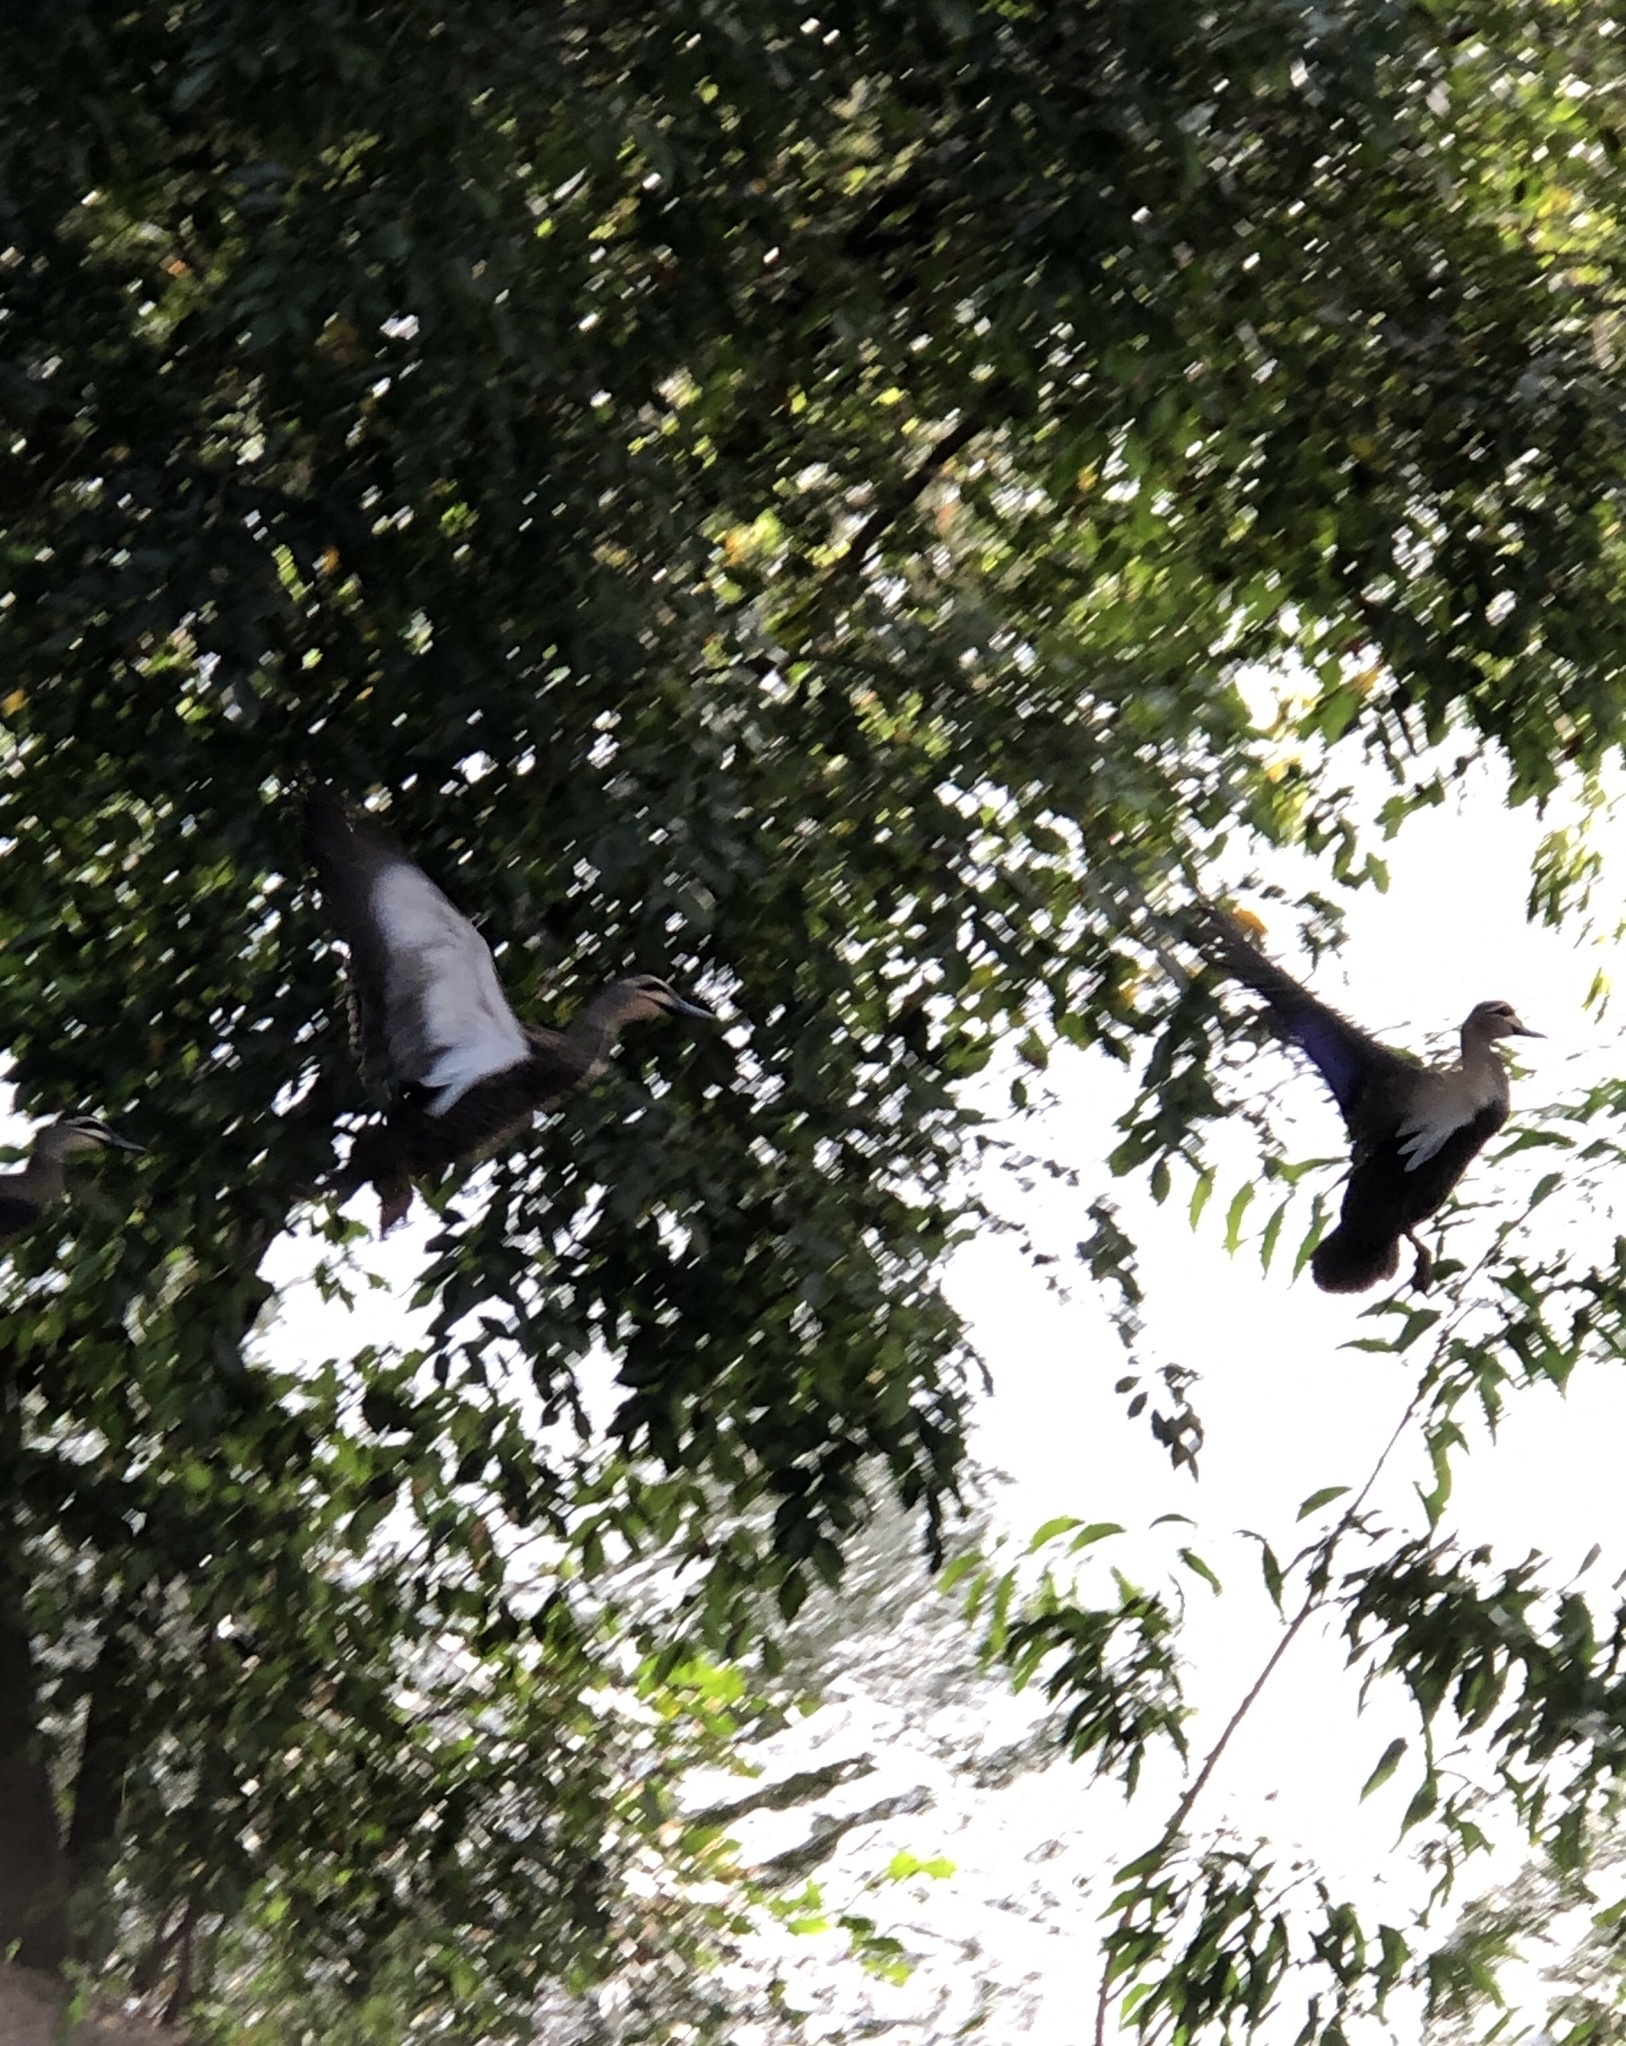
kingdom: Animalia
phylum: Chordata
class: Aves
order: Anseriformes
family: Anatidae
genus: Anas
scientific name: Anas superciliosa
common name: Pacific black duck
